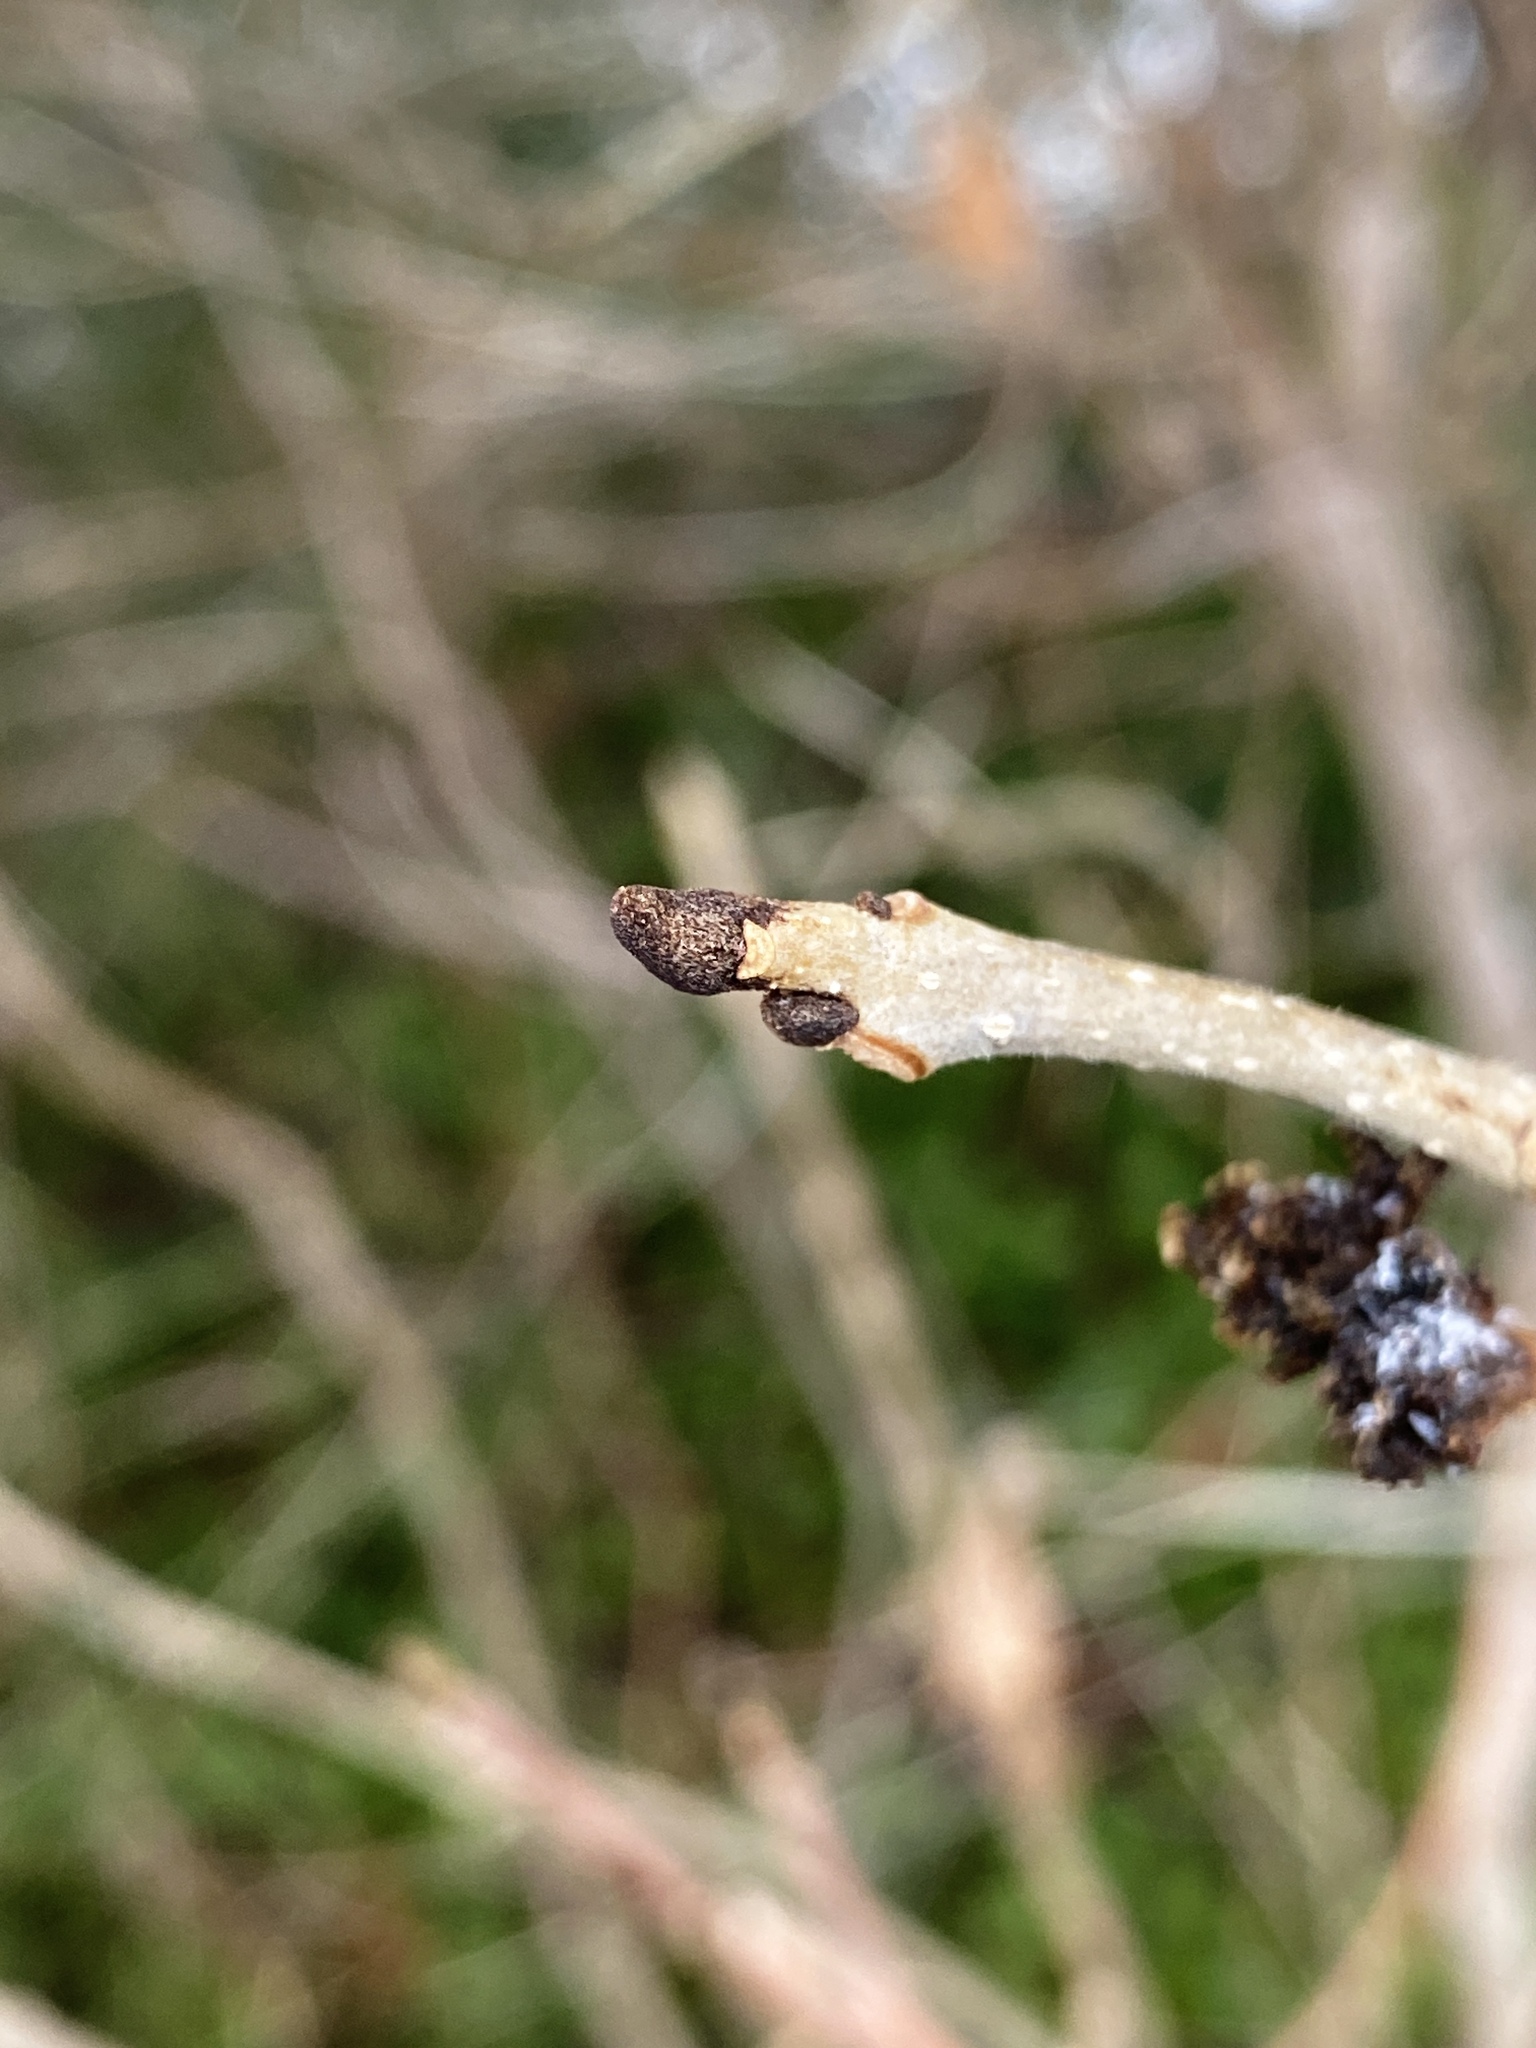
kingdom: Animalia
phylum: Arthropoda
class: Arachnida
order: Trombidiformes
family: Eriophyidae
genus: Aceria
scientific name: Aceria fraxiniflora
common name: Ash flower gall mite
